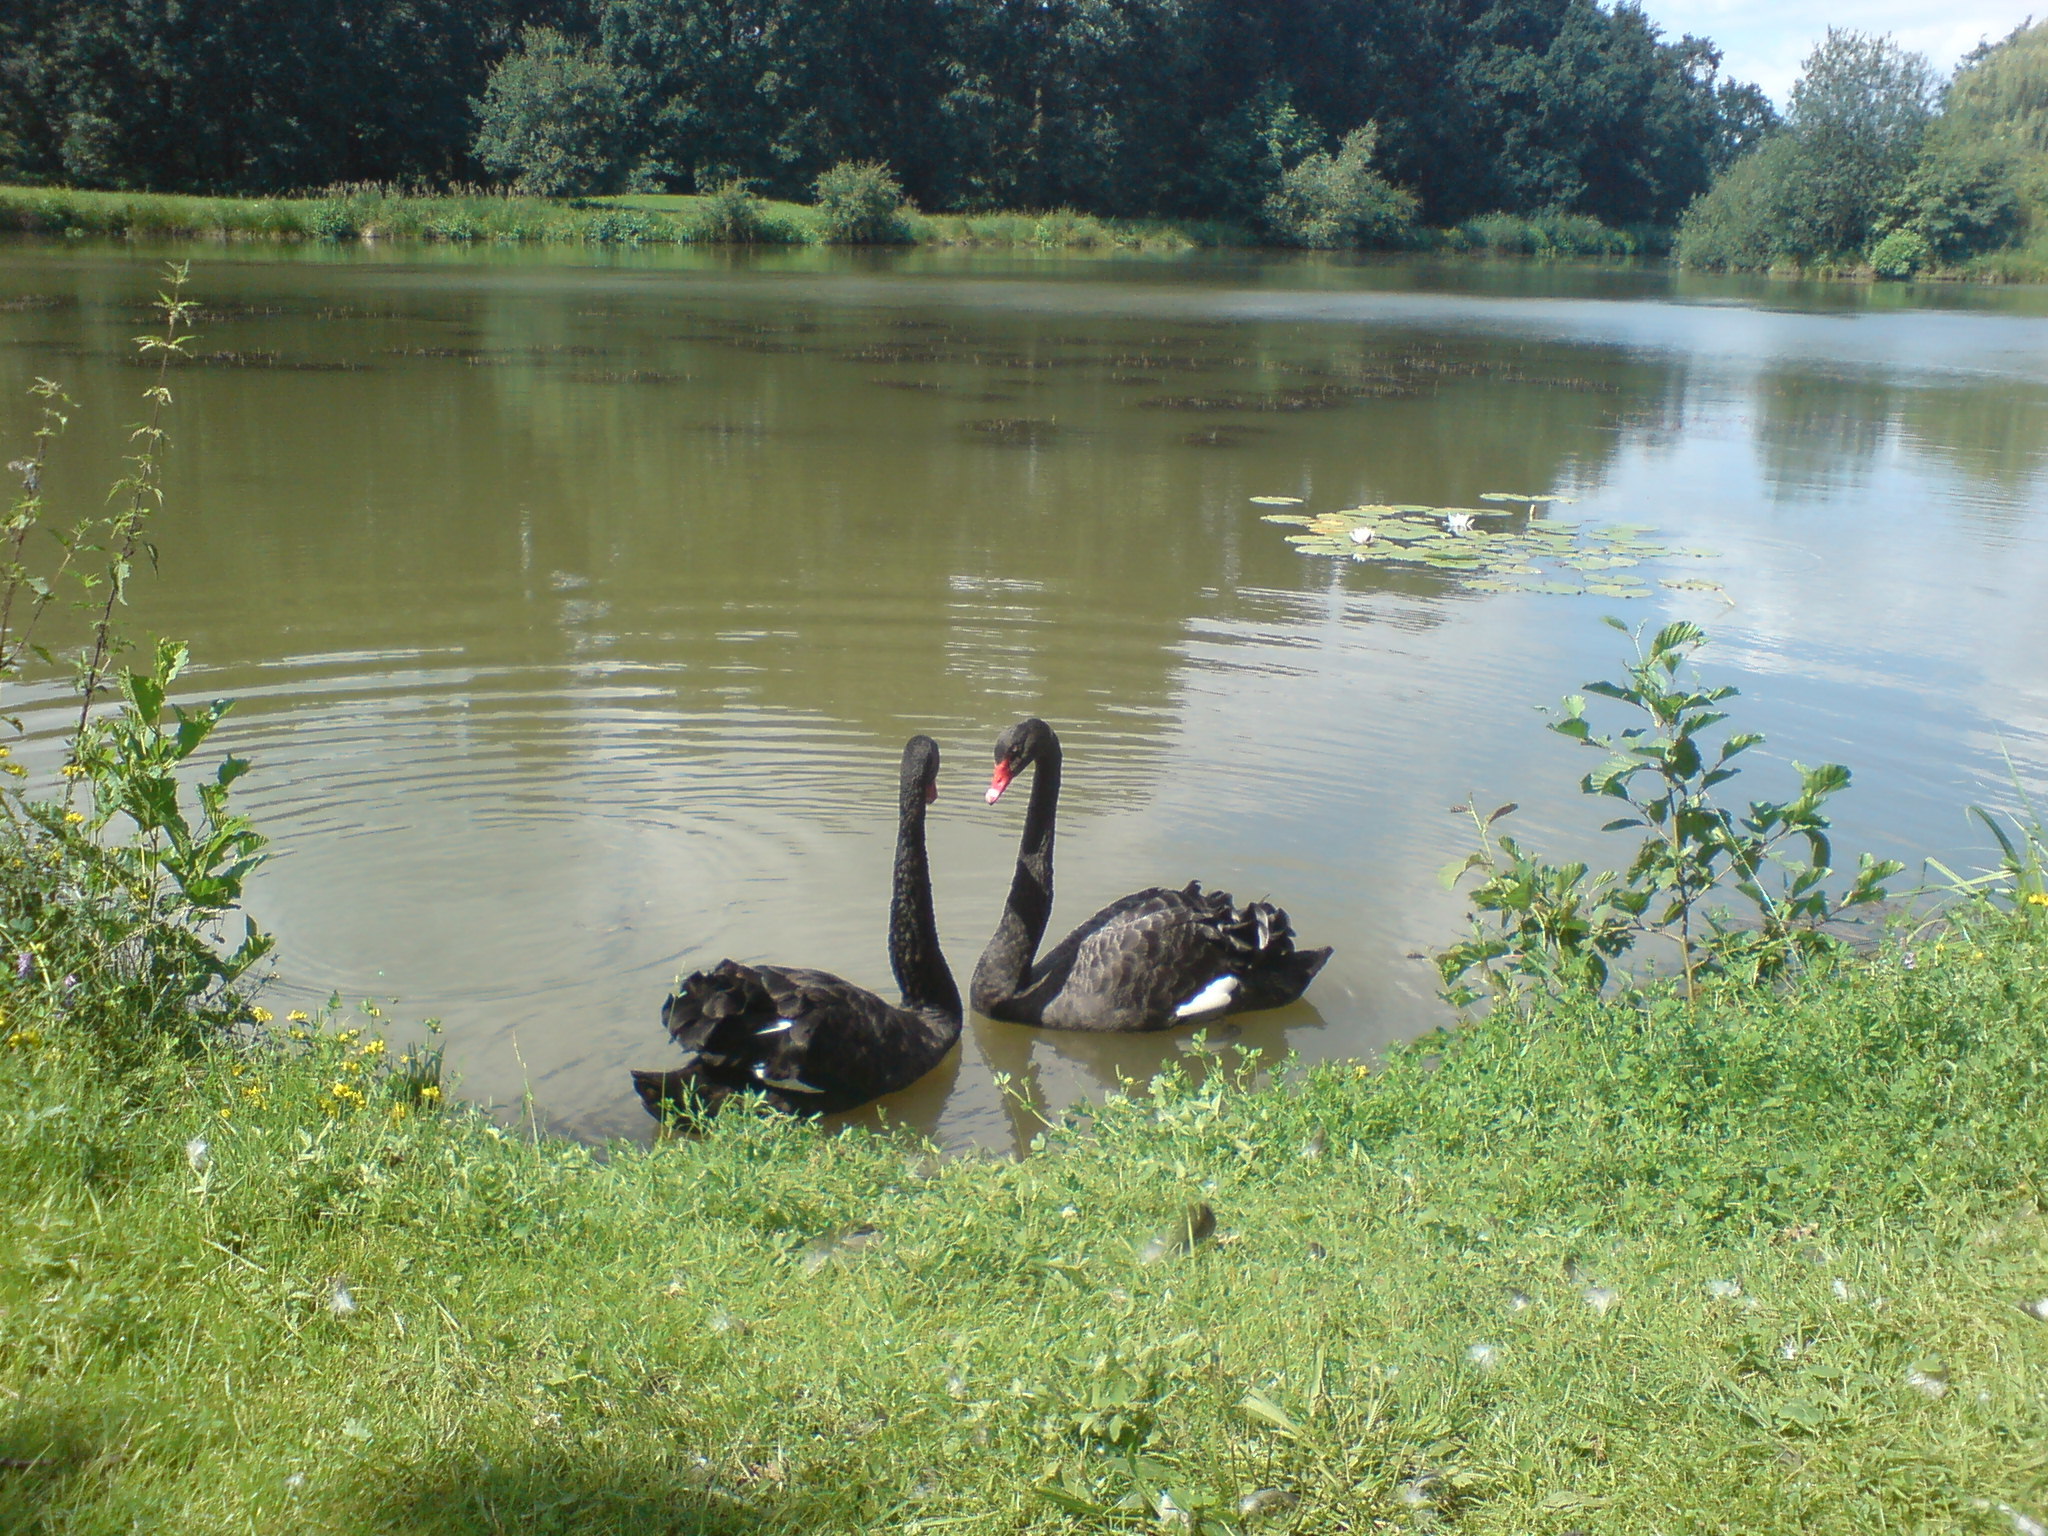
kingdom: Animalia
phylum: Chordata
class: Aves
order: Anseriformes
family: Anatidae
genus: Cygnus
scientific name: Cygnus atratus
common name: Black swan
